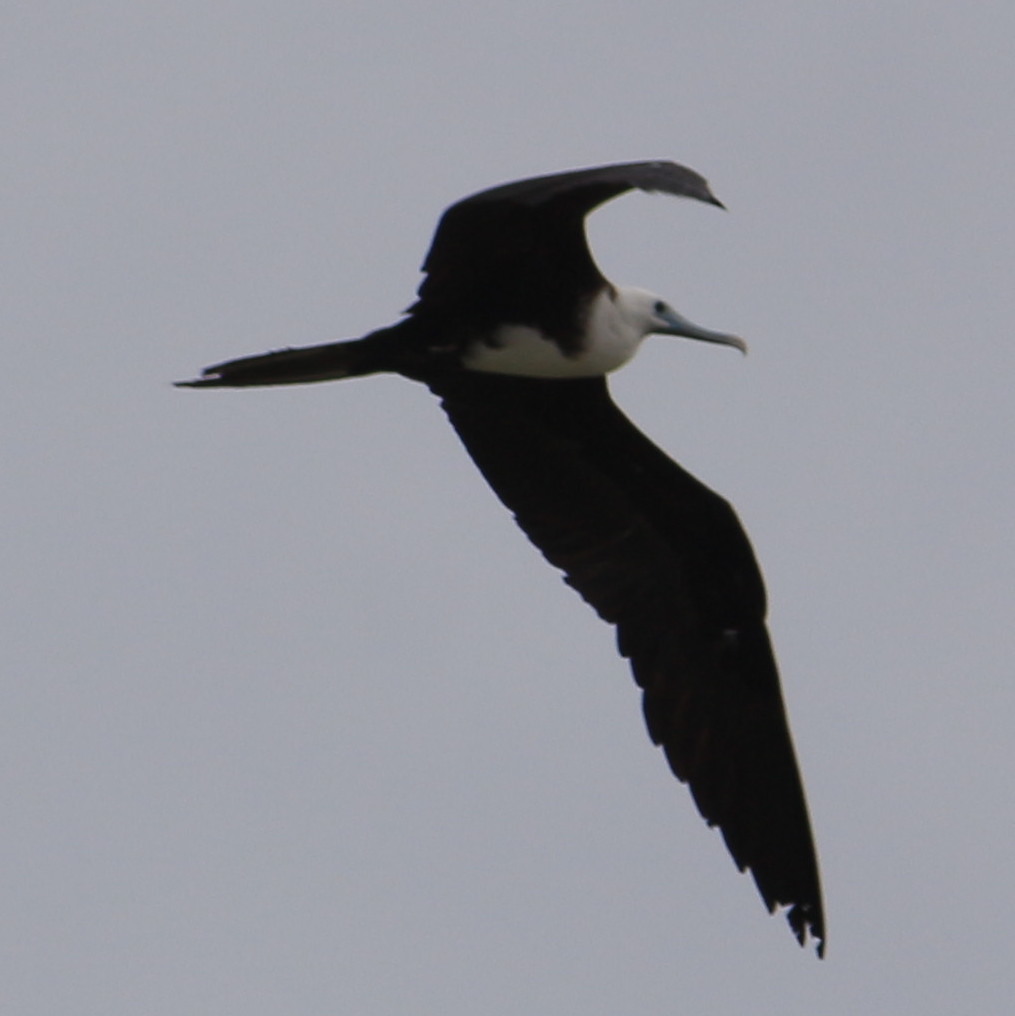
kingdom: Animalia
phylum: Chordata
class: Aves
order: Suliformes
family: Fregatidae
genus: Fregata
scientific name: Fregata magnificens
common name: Magnificent frigatebird
